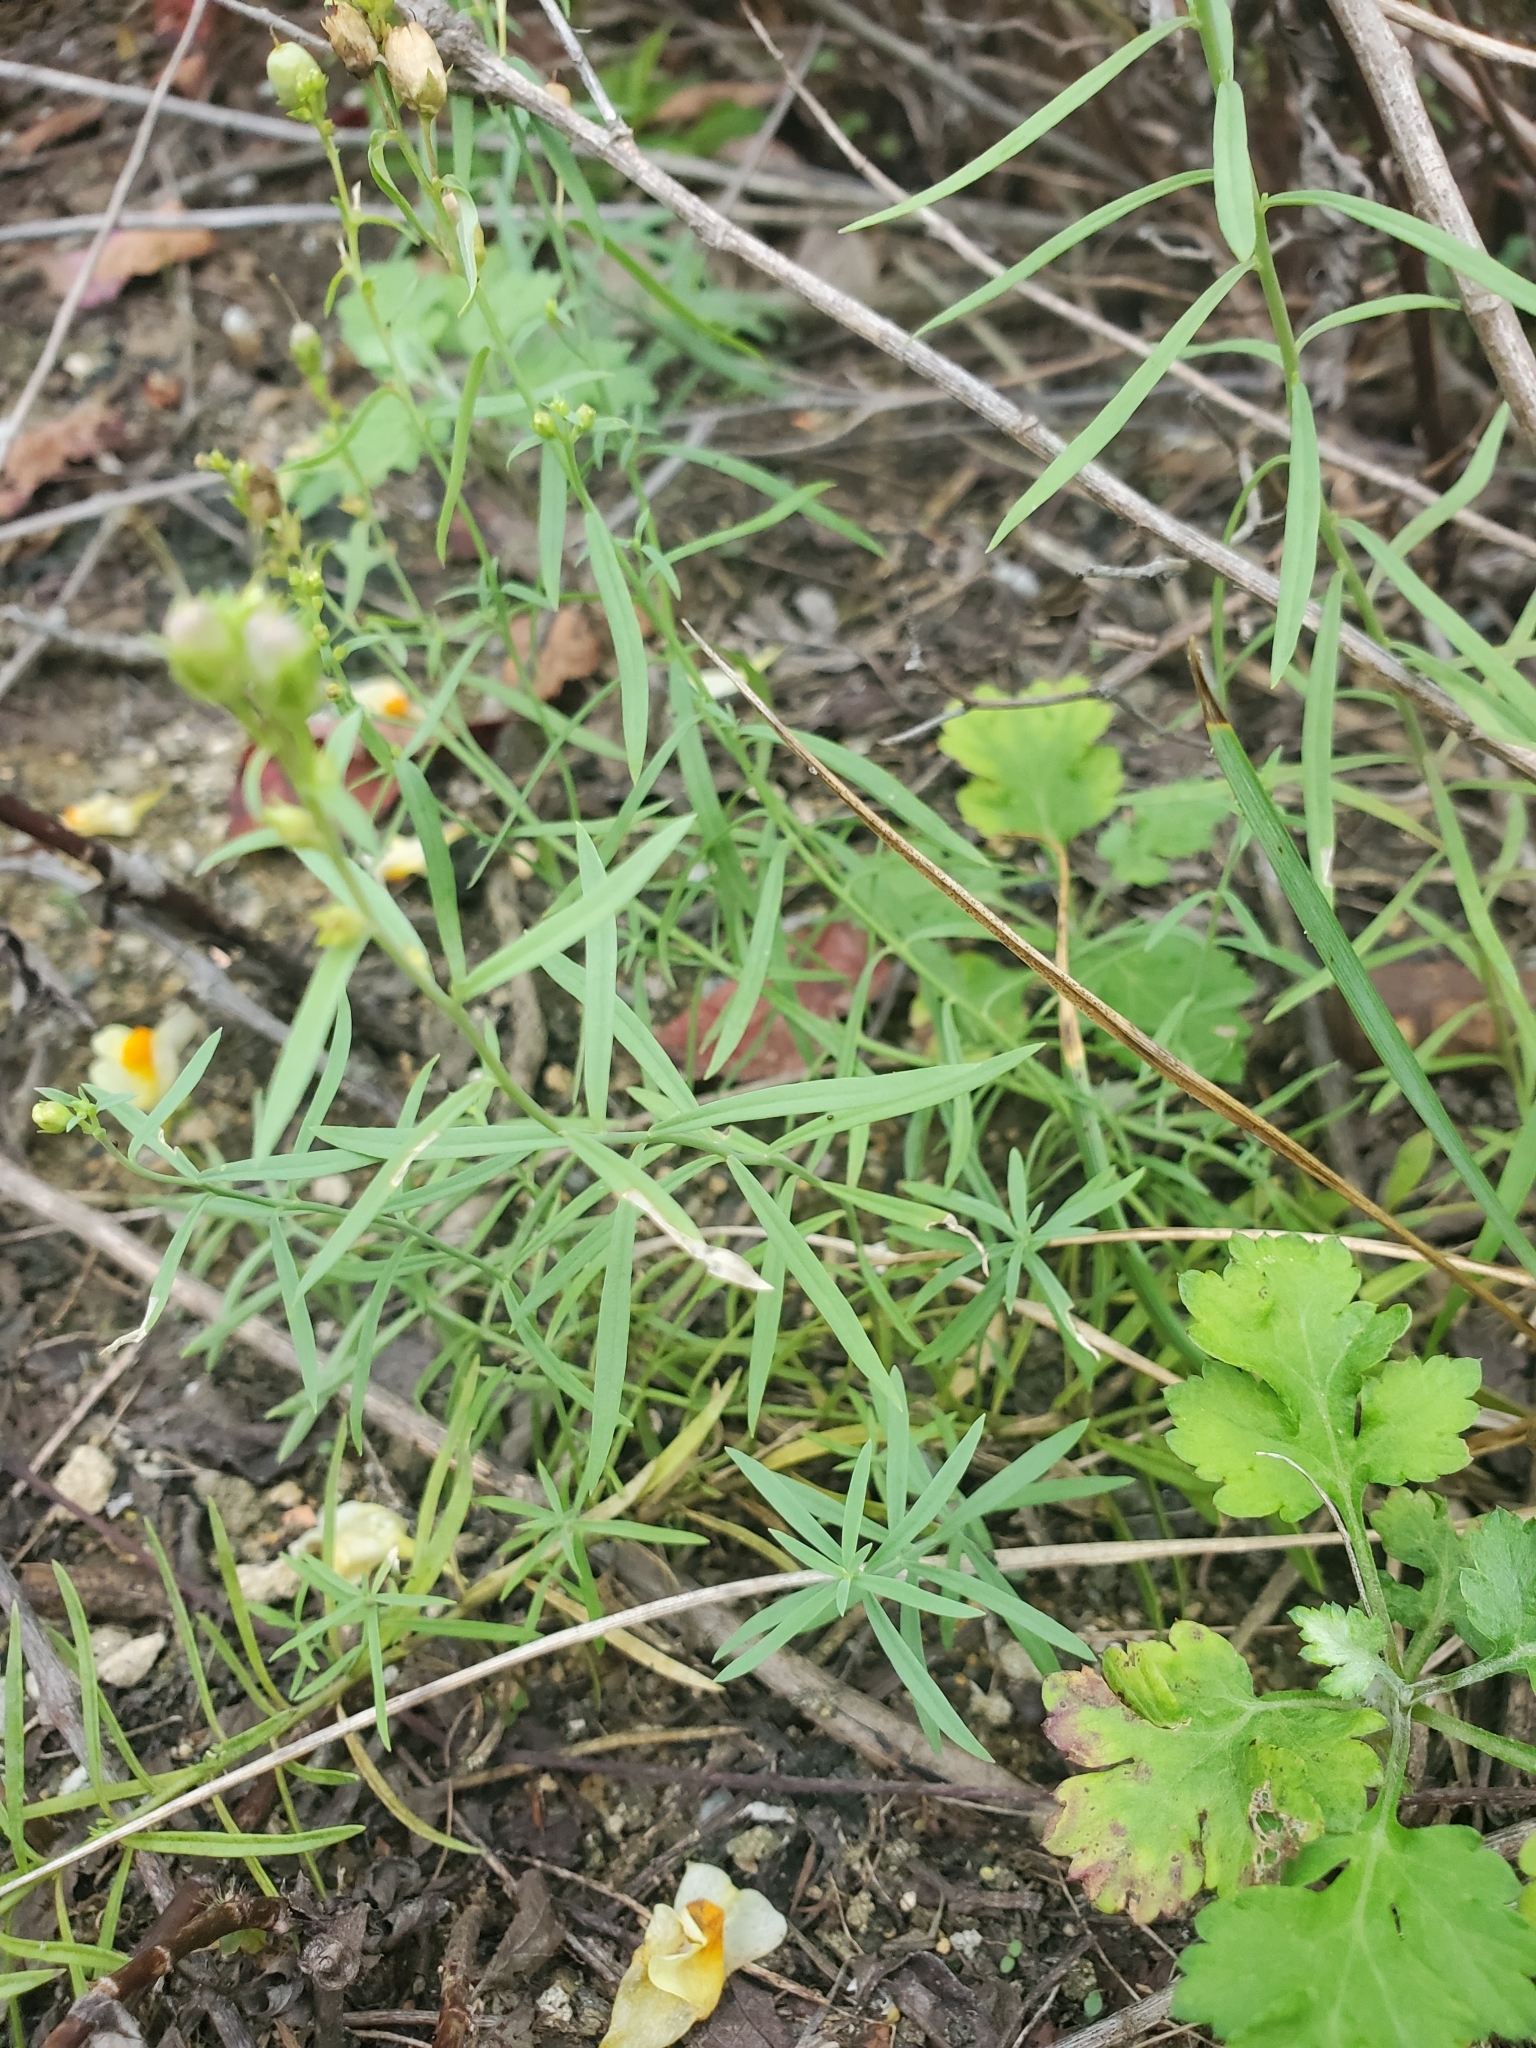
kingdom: Plantae
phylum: Tracheophyta
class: Magnoliopsida
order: Lamiales
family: Plantaginaceae
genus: Linaria
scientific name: Linaria vulgaris
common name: Butter and eggs
